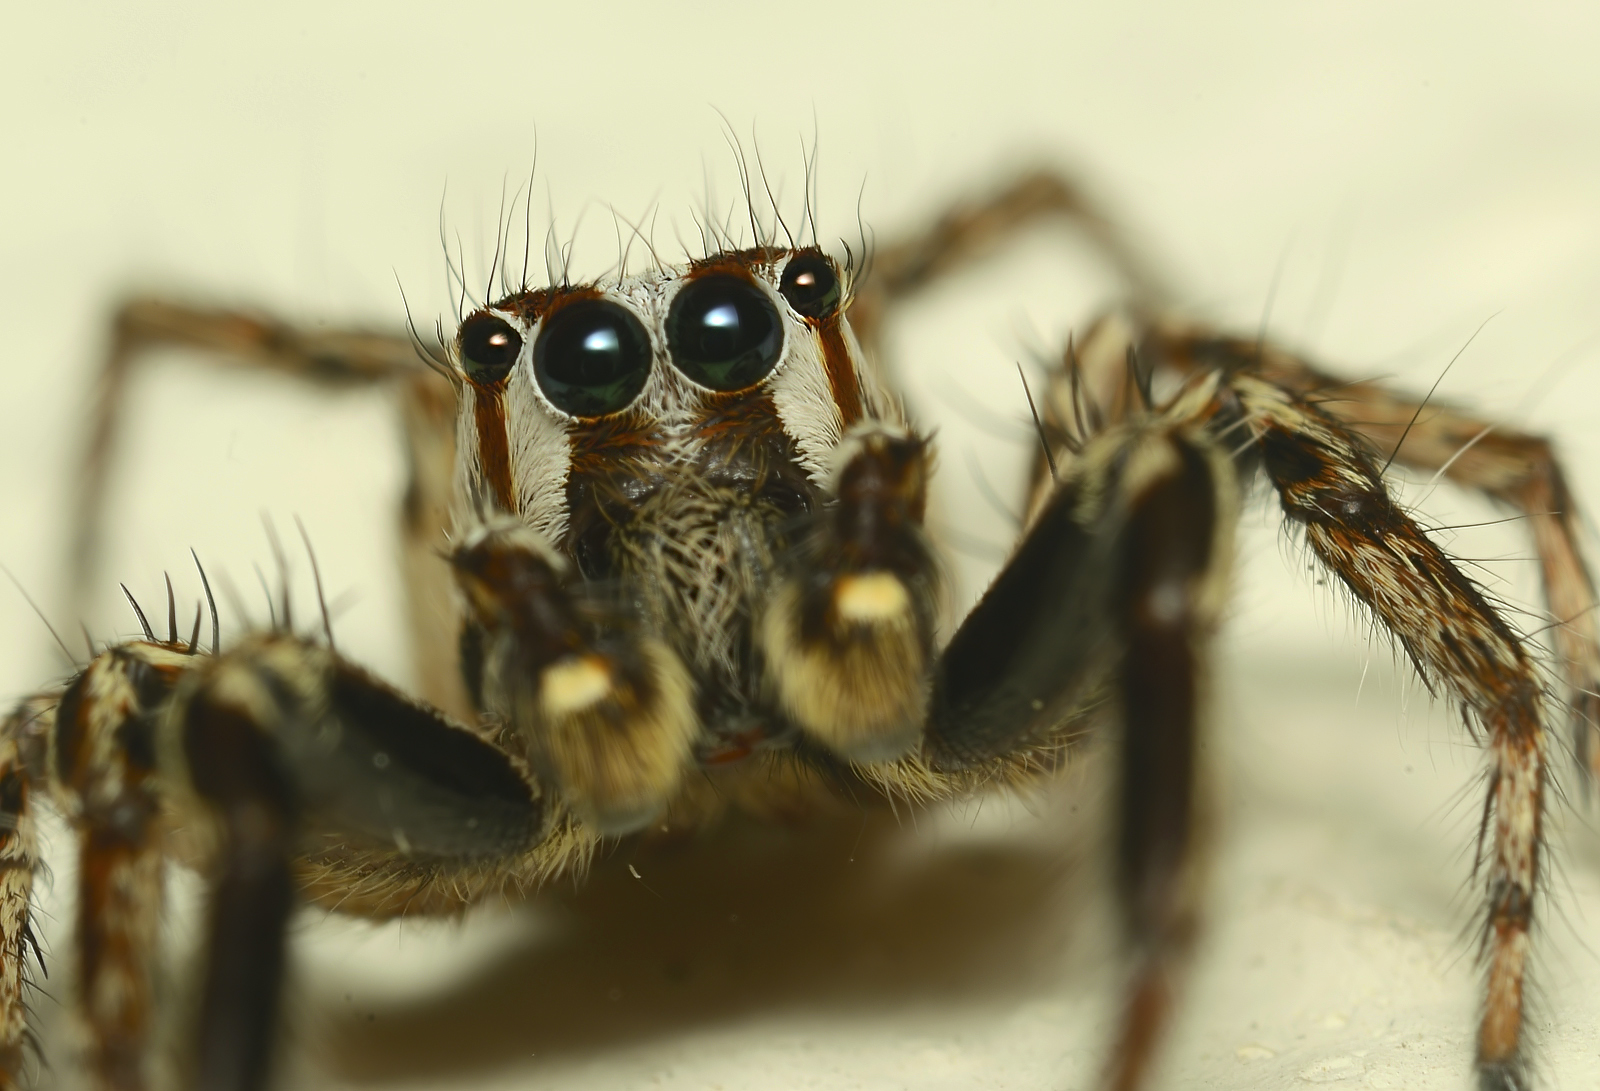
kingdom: Animalia
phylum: Arthropoda
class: Arachnida
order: Araneae
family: Salticidae
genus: Plexippus
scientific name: Plexippus paykulli
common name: Pantropical jumper
